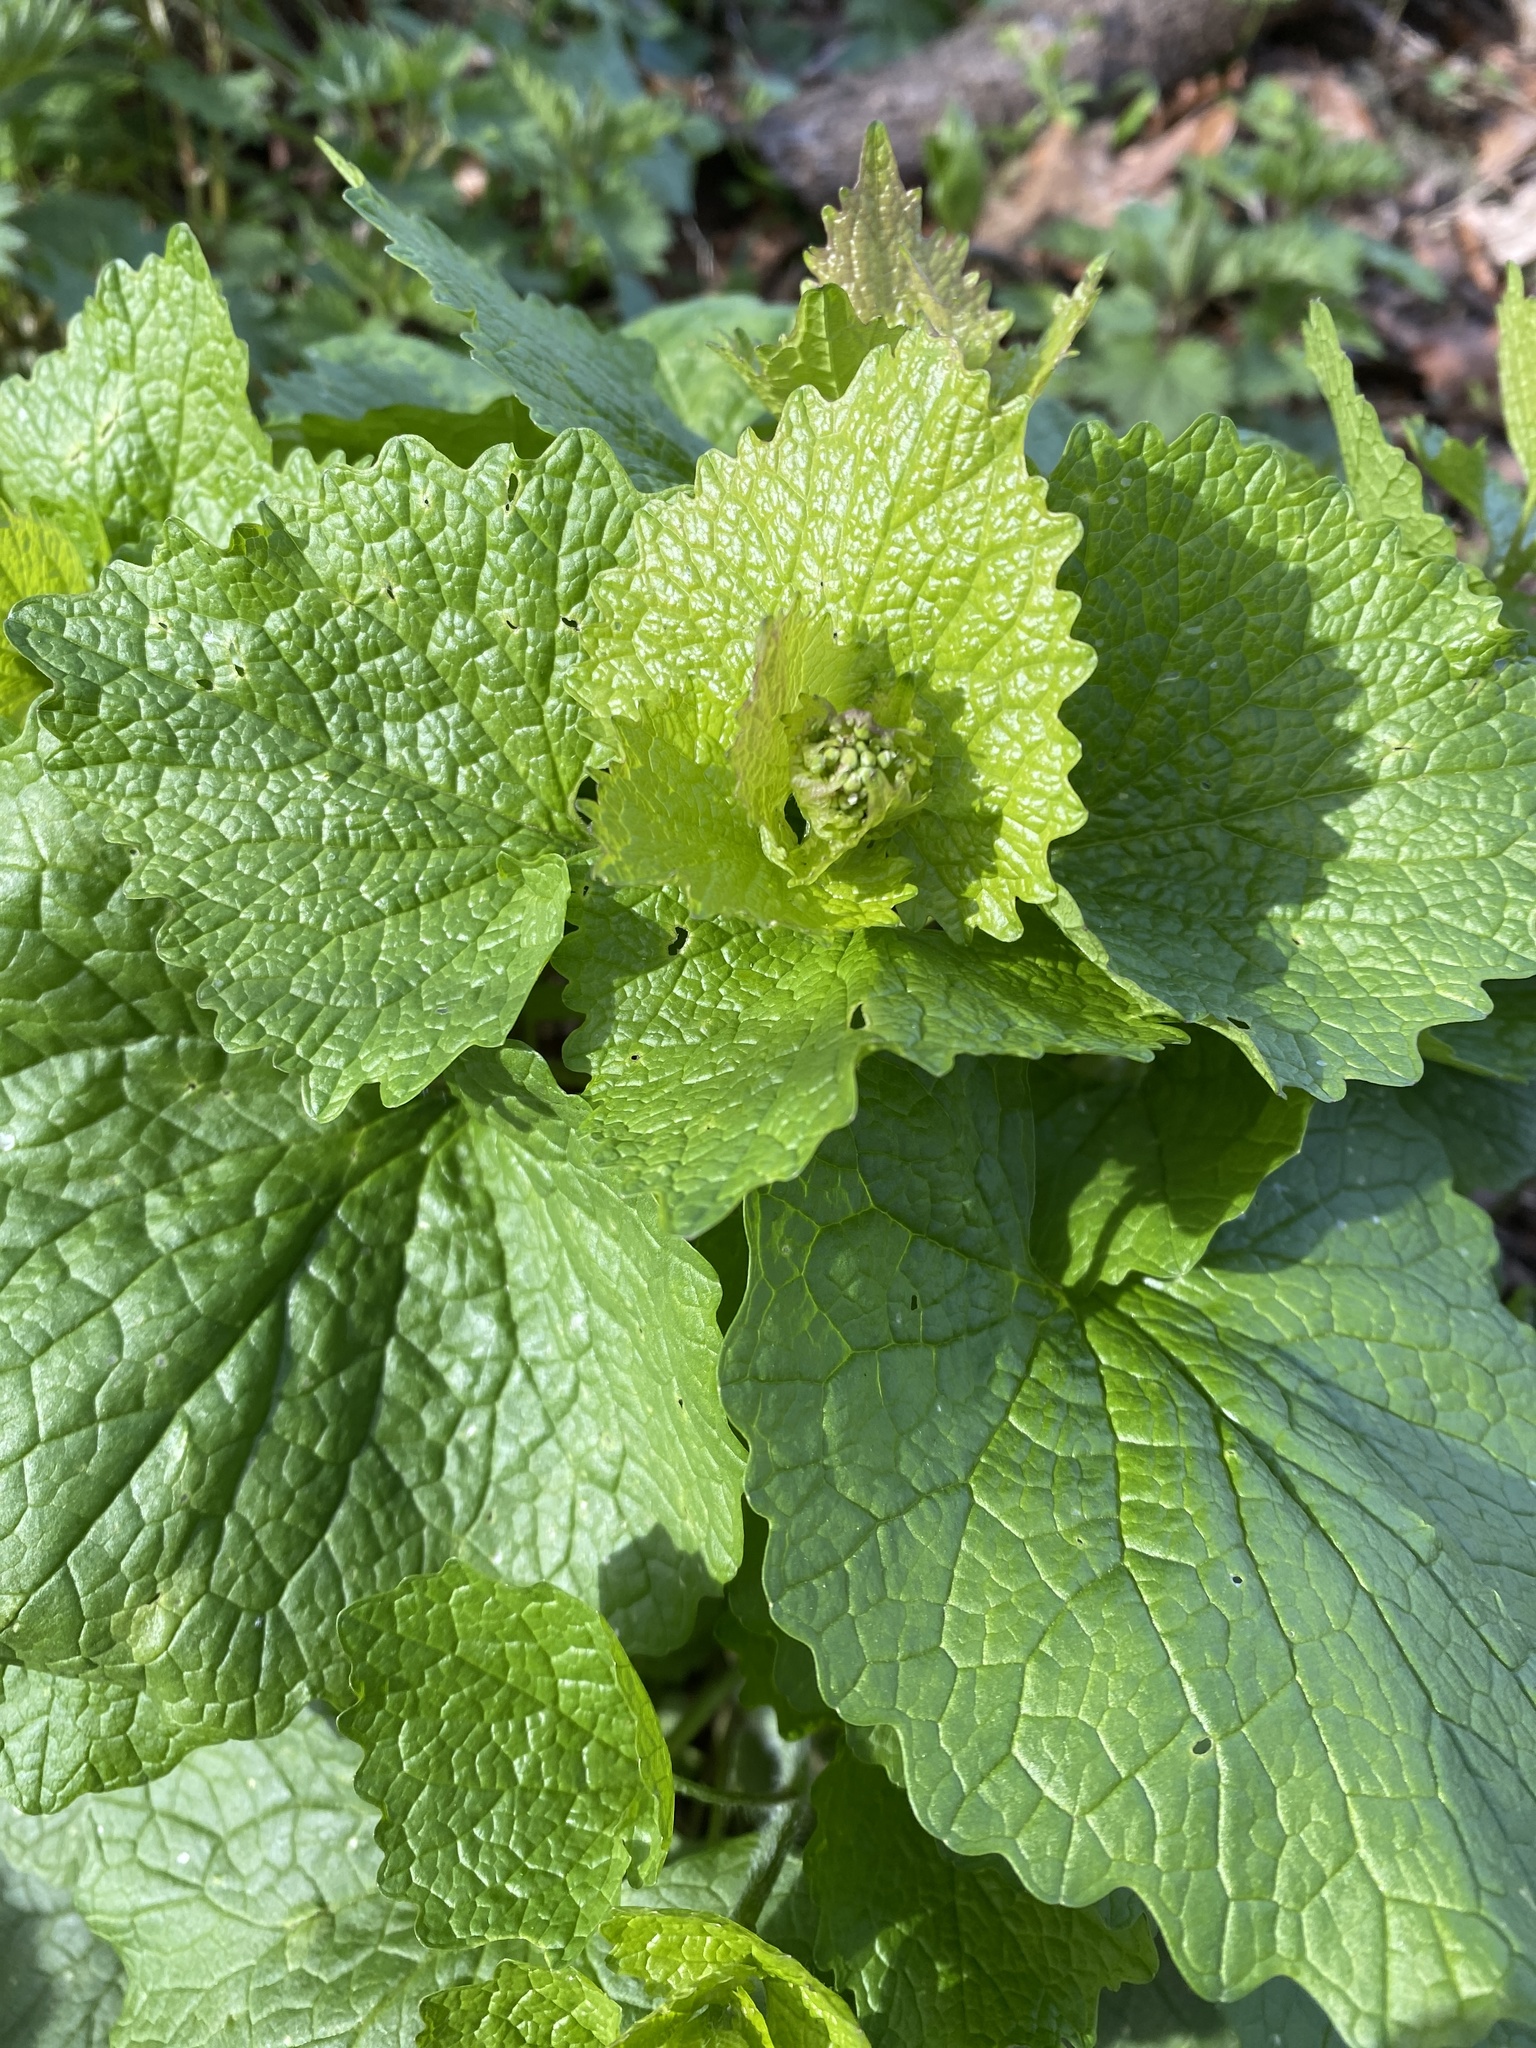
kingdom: Plantae
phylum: Tracheophyta
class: Magnoliopsida
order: Brassicales
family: Brassicaceae
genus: Alliaria
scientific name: Alliaria petiolata
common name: Garlic mustard
